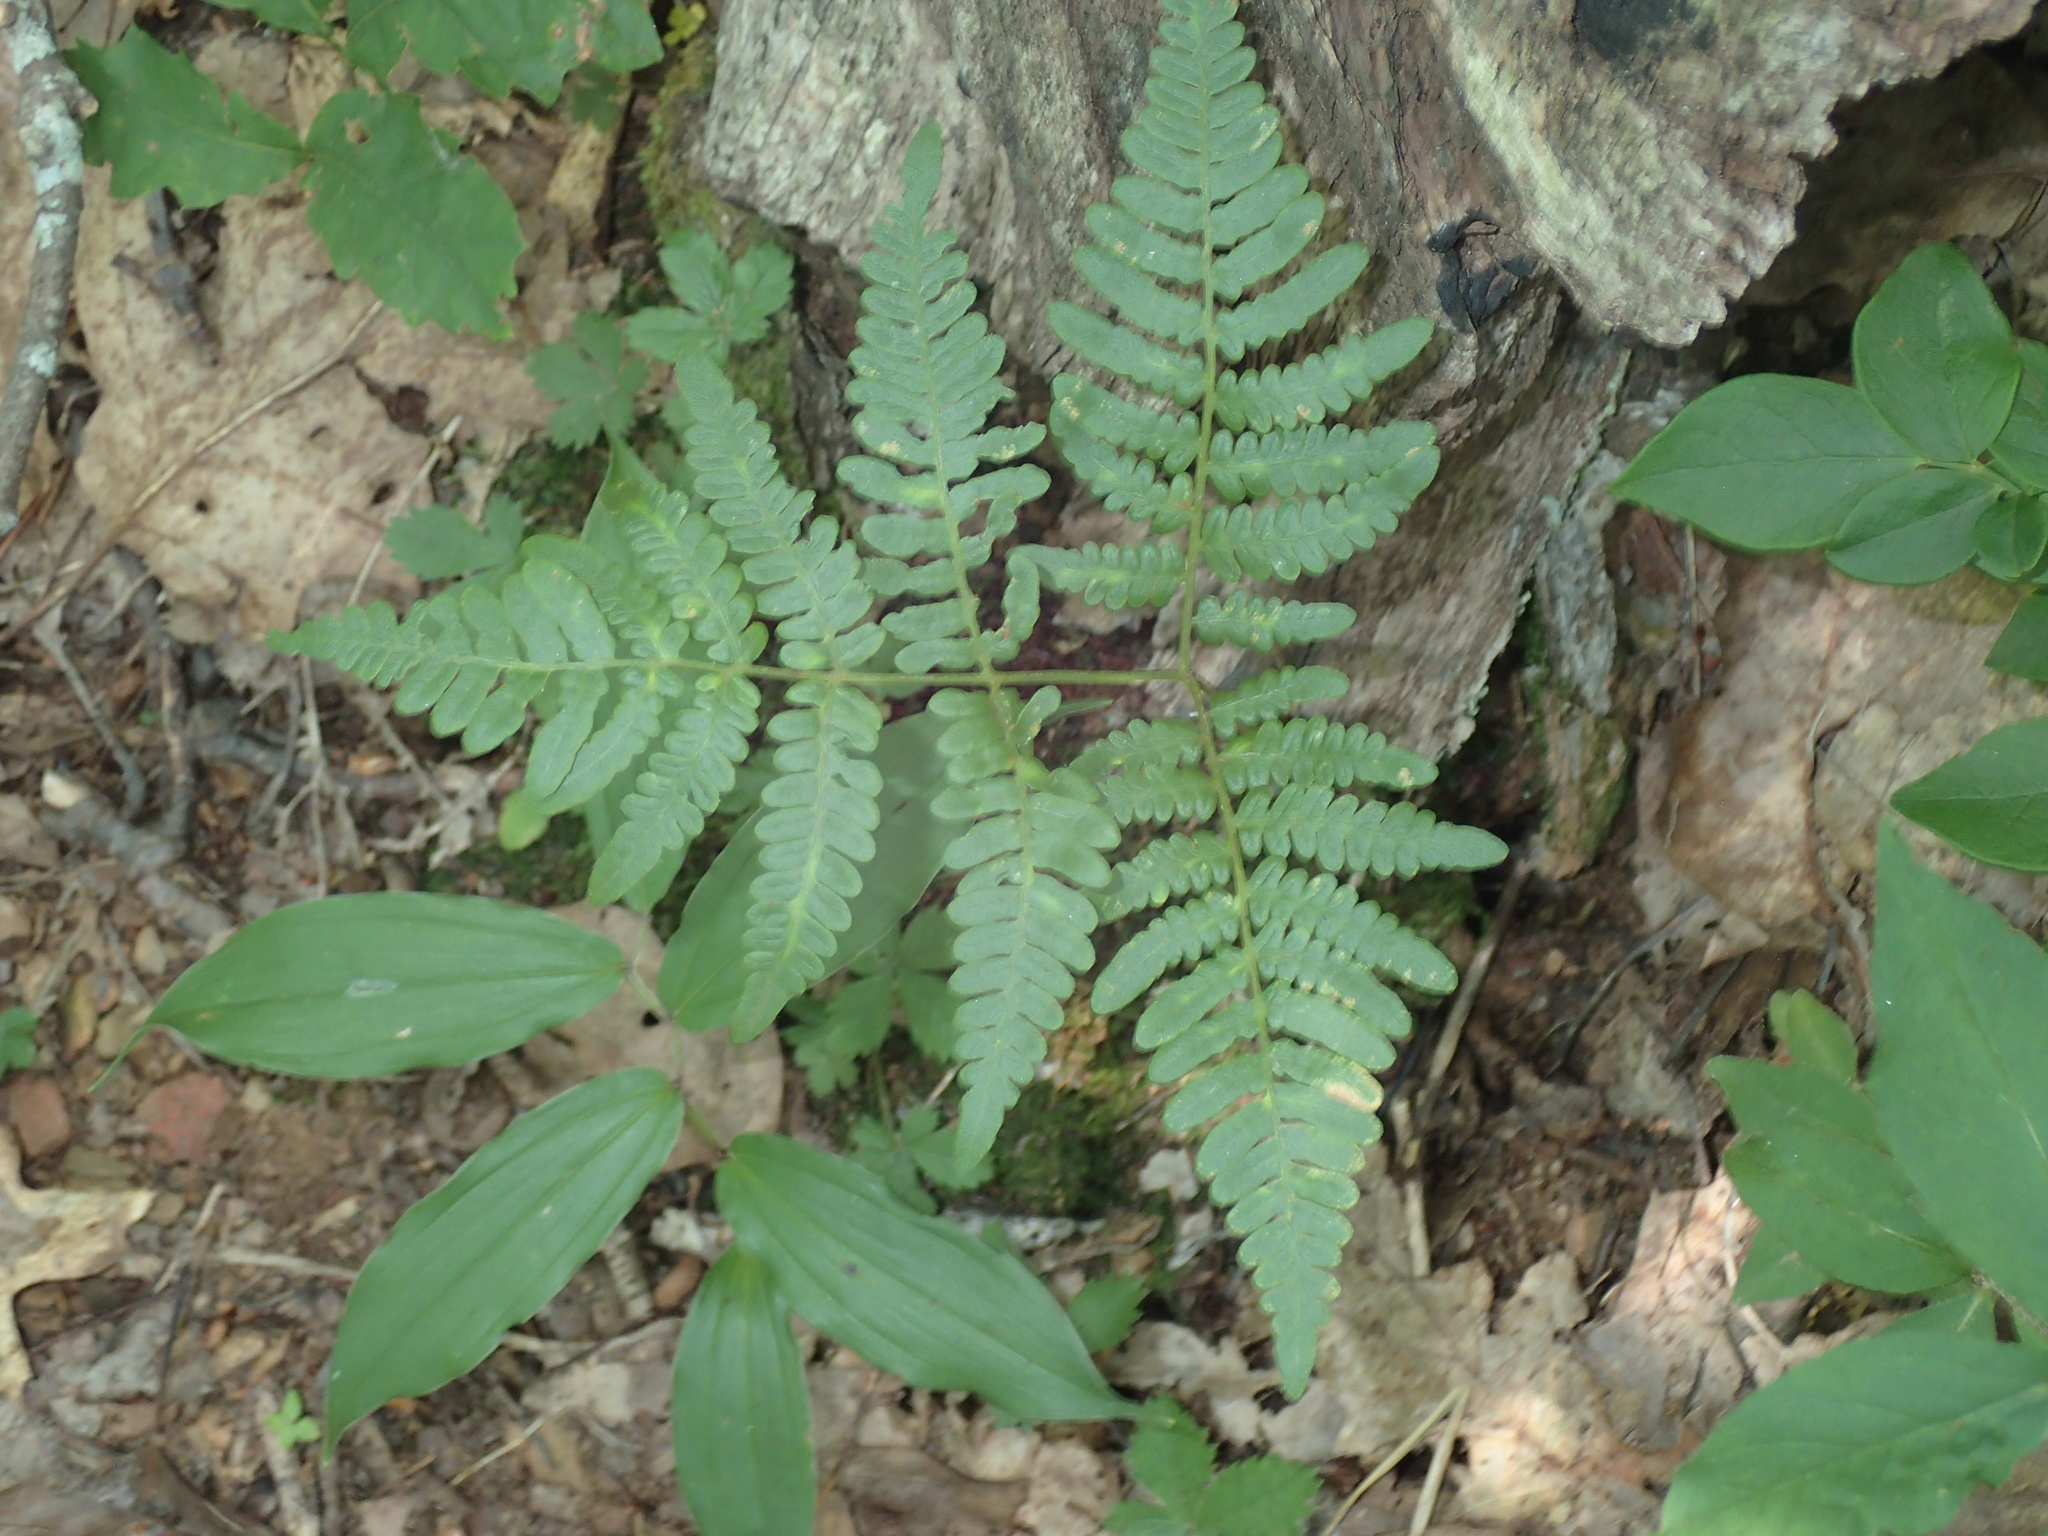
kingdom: Plantae
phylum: Tracheophyta
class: Polypodiopsida
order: Polypodiales
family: Dennstaedtiaceae
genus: Pteridium
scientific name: Pteridium aquilinum
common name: Bracken
